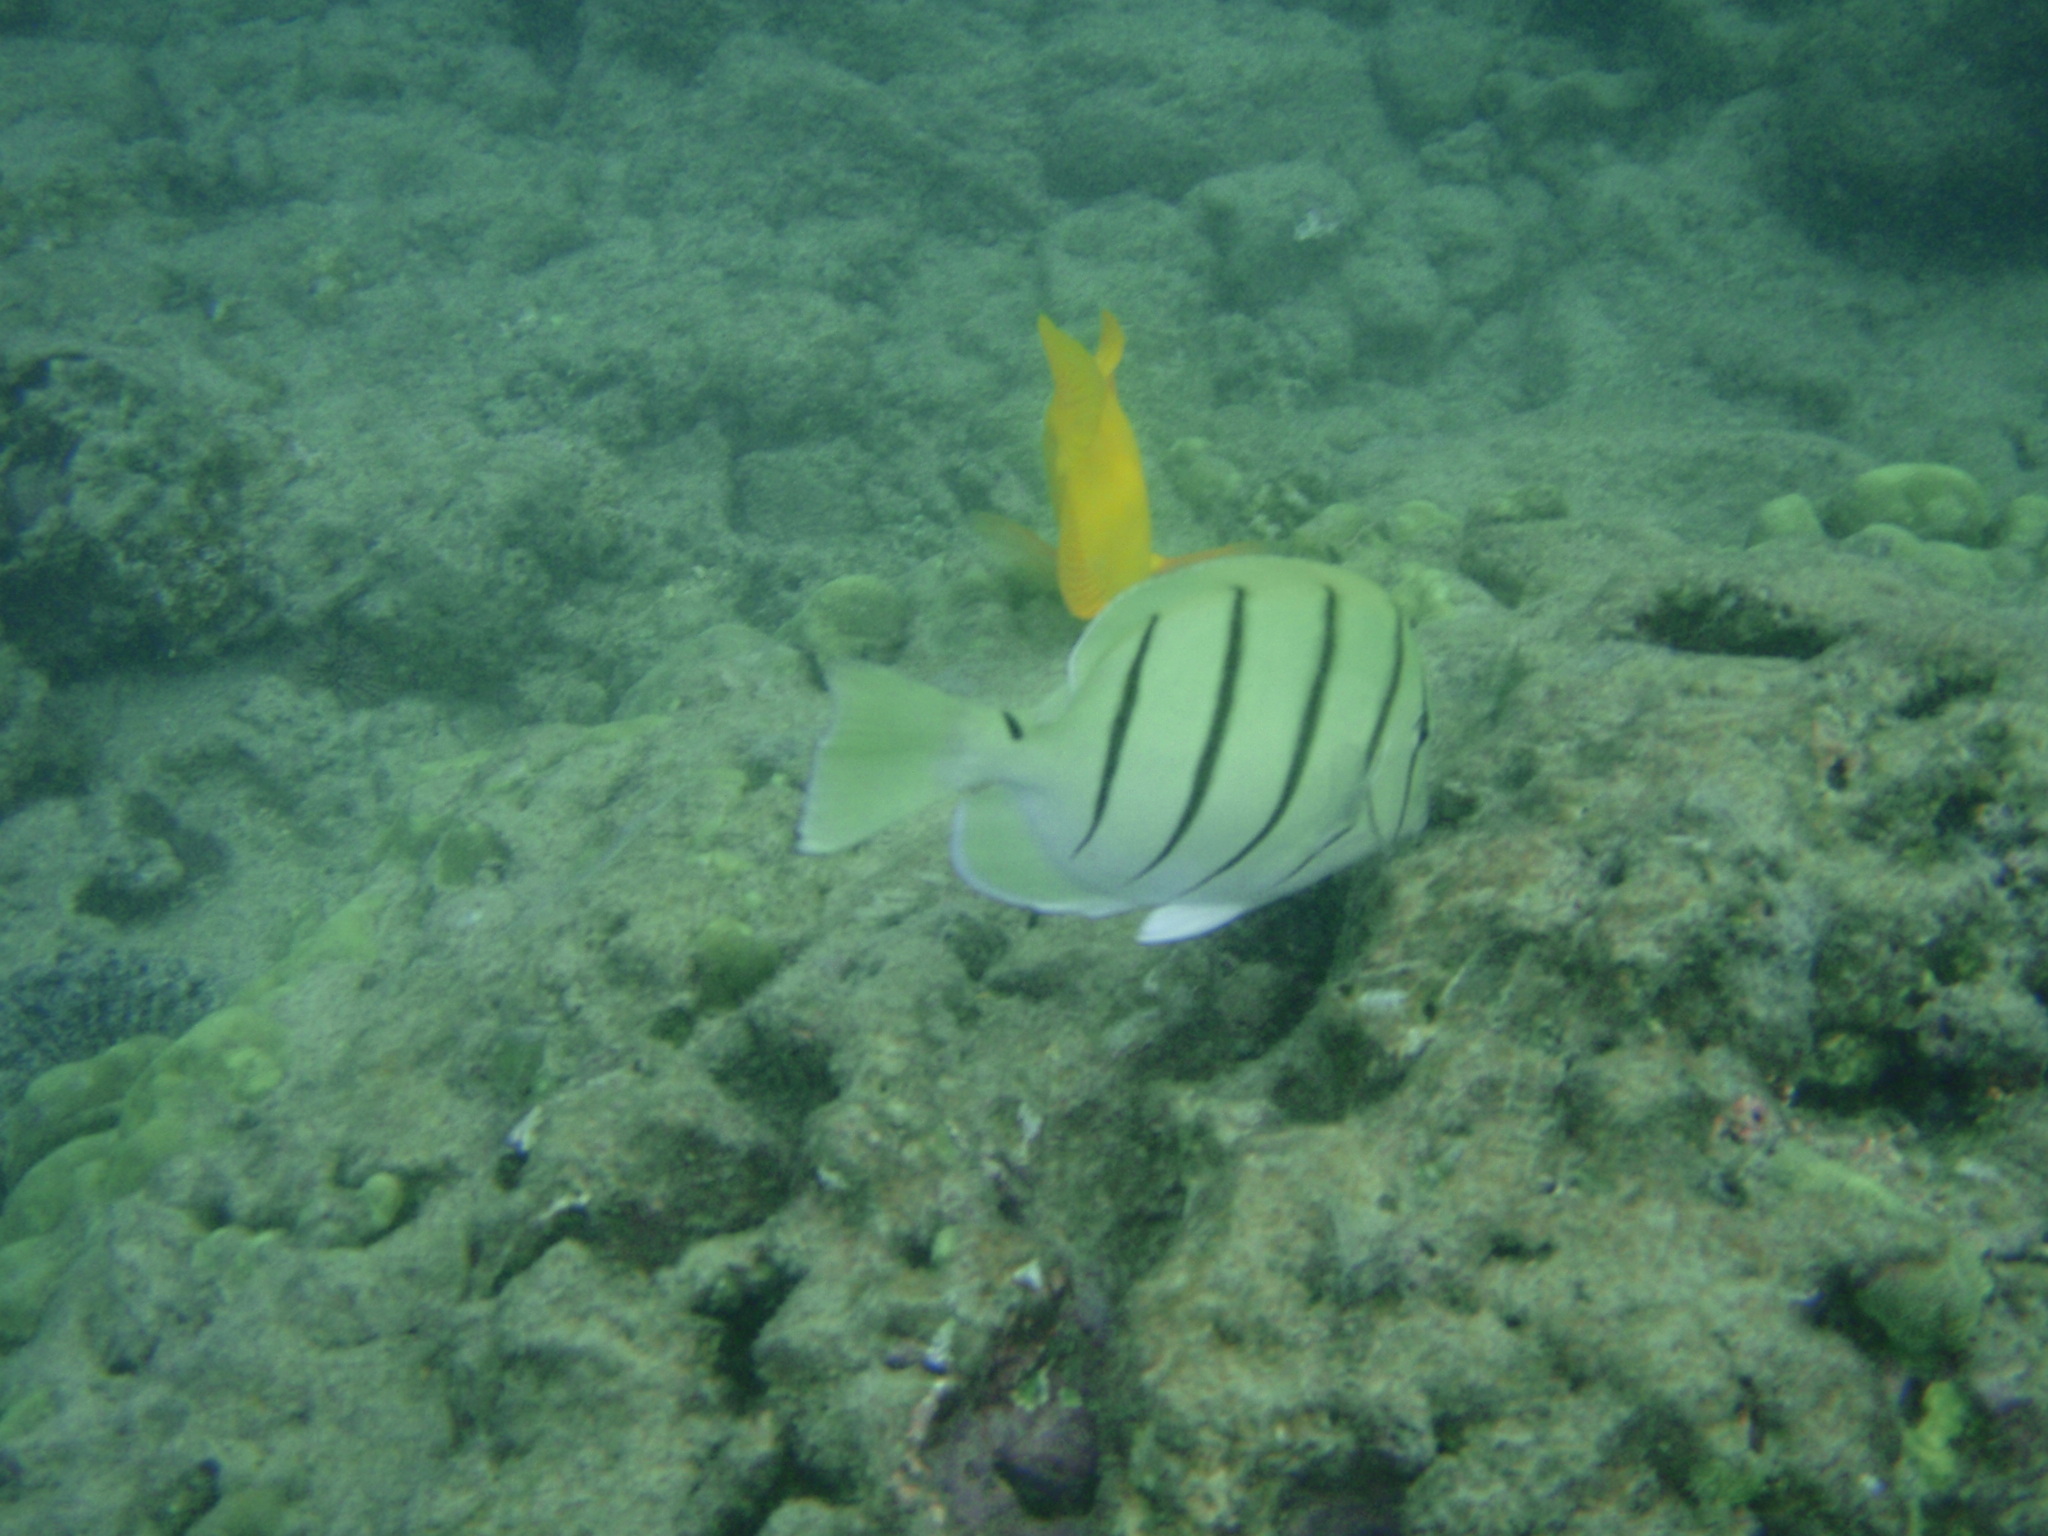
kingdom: Animalia
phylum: Chordata
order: Perciformes
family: Acanthuridae
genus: Acanthurus
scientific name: Acanthurus triostegus
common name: Convict surgeonfish
